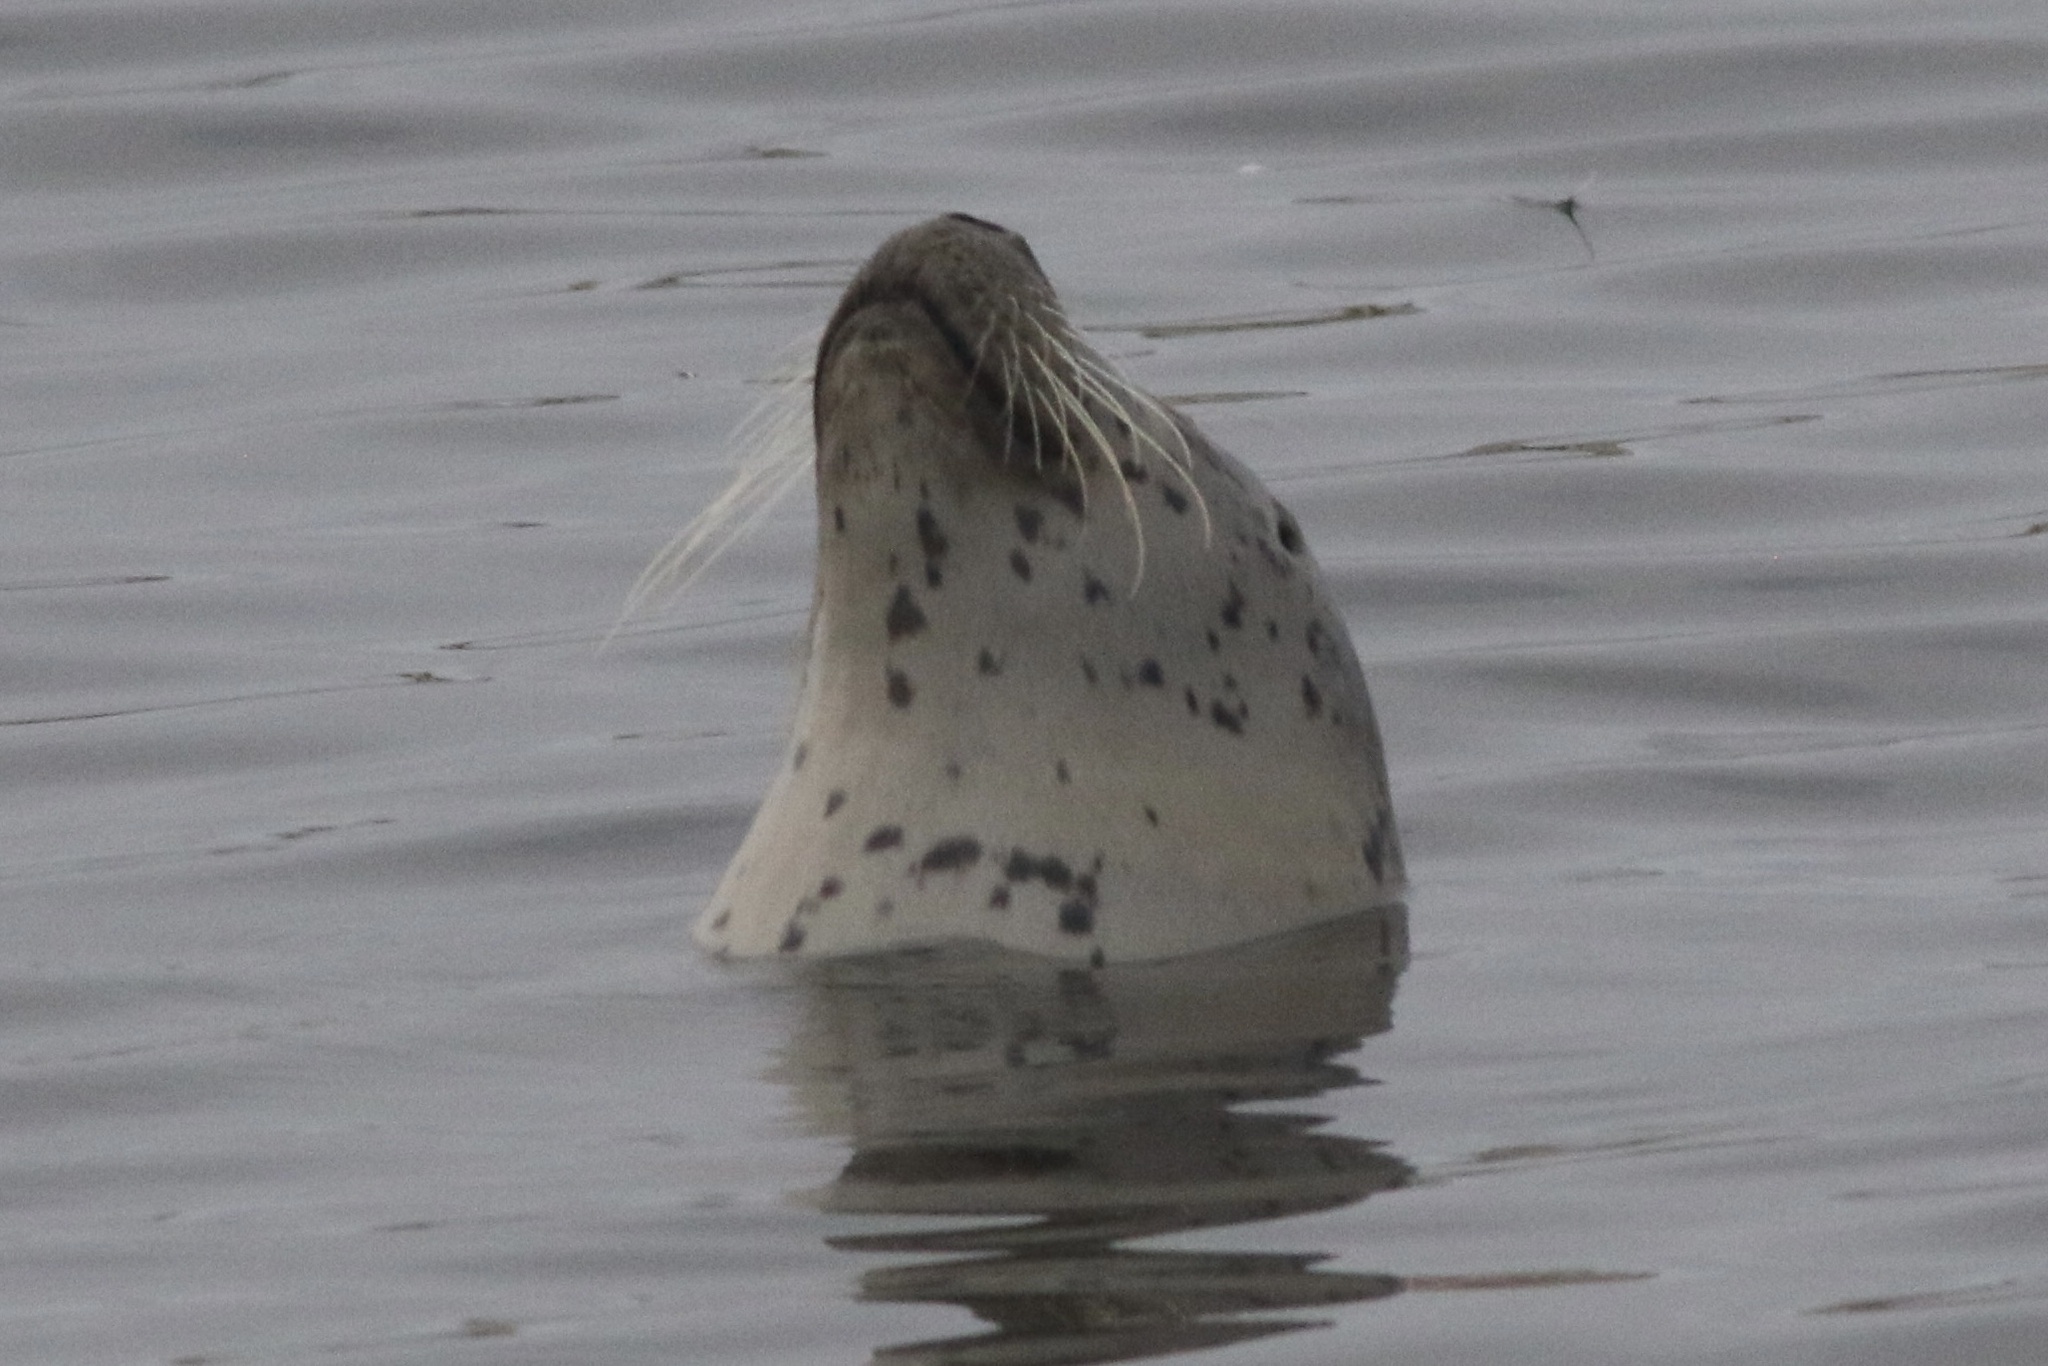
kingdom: Animalia
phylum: Chordata
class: Mammalia
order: Carnivora
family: Phocidae
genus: Phoca
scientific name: Phoca vitulina
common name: Harbor seal
